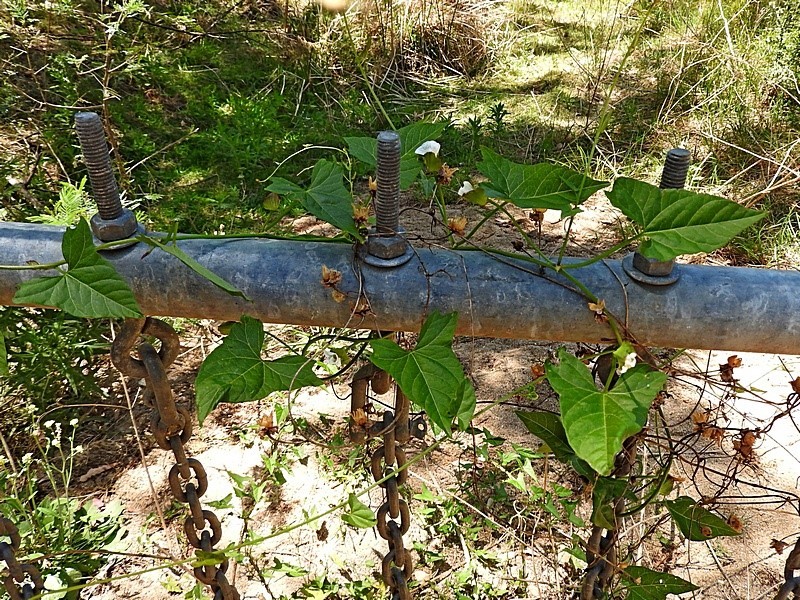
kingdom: Plantae
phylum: Tracheophyta
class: Magnoliopsida
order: Solanales
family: Convolvulaceae
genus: Calystegia
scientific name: Calystegia marginata
